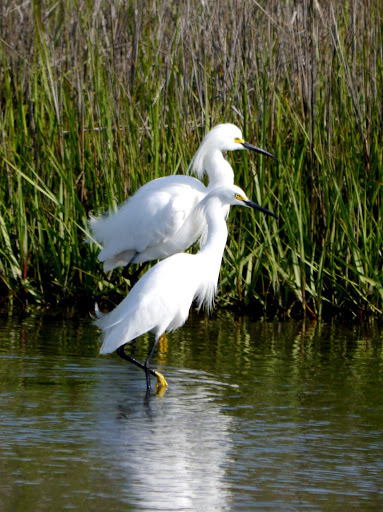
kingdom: Animalia
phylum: Chordata
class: Aves
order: Pelecaniformes
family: Ardeidae
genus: Egretta
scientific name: Egretta thula
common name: Snowy egret
